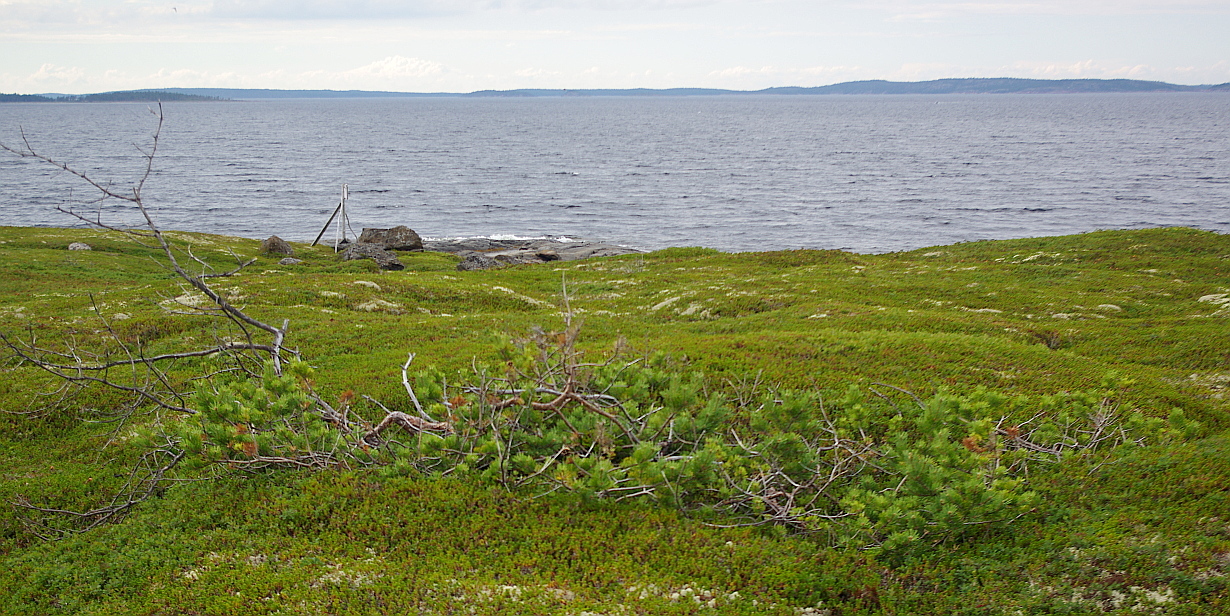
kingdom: Plantae
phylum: Tracheophyta
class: Pinopsida
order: Pinales
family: Pinaceae
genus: Pinus
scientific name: Pinus sylvestris
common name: Scots pine
